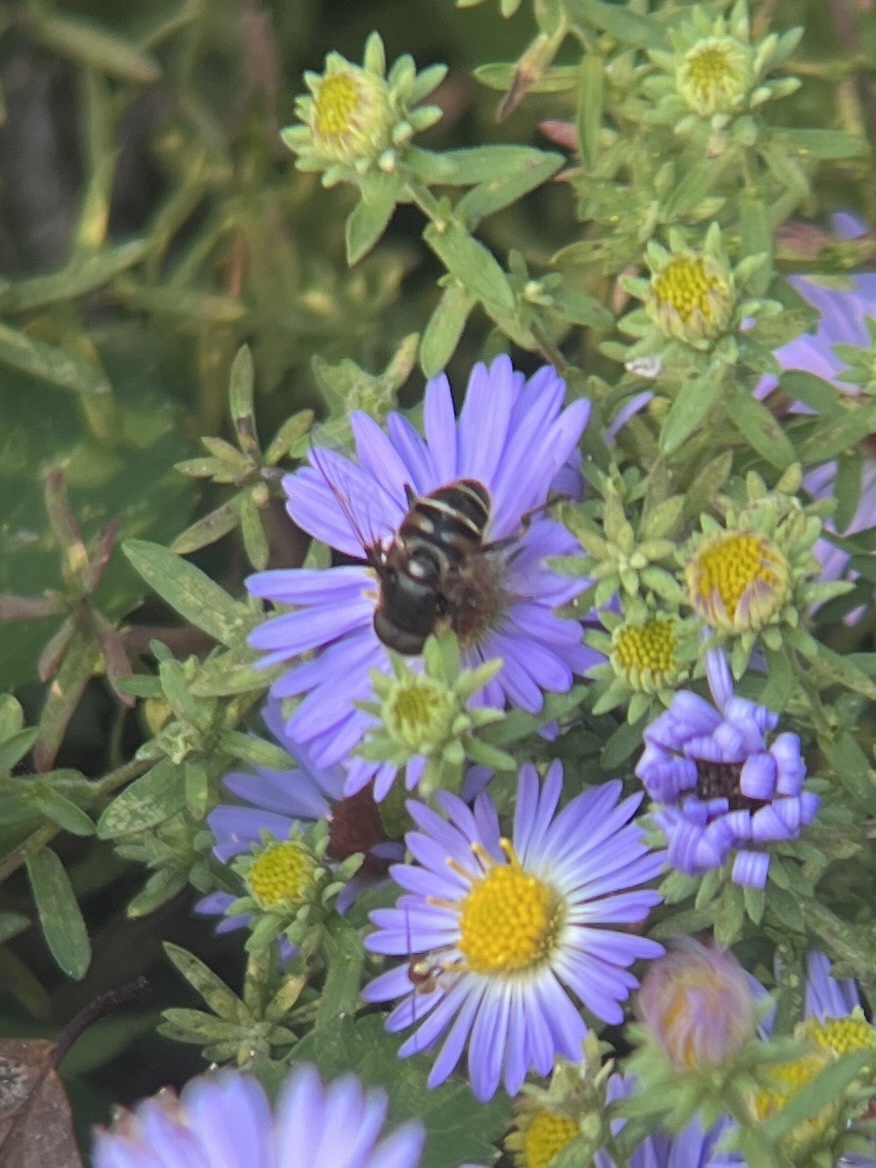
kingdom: Animalia
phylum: Arthropoda
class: Insecta
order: Diptera
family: Syrphidae
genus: Eristalis
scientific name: Eristalis dimidiata
